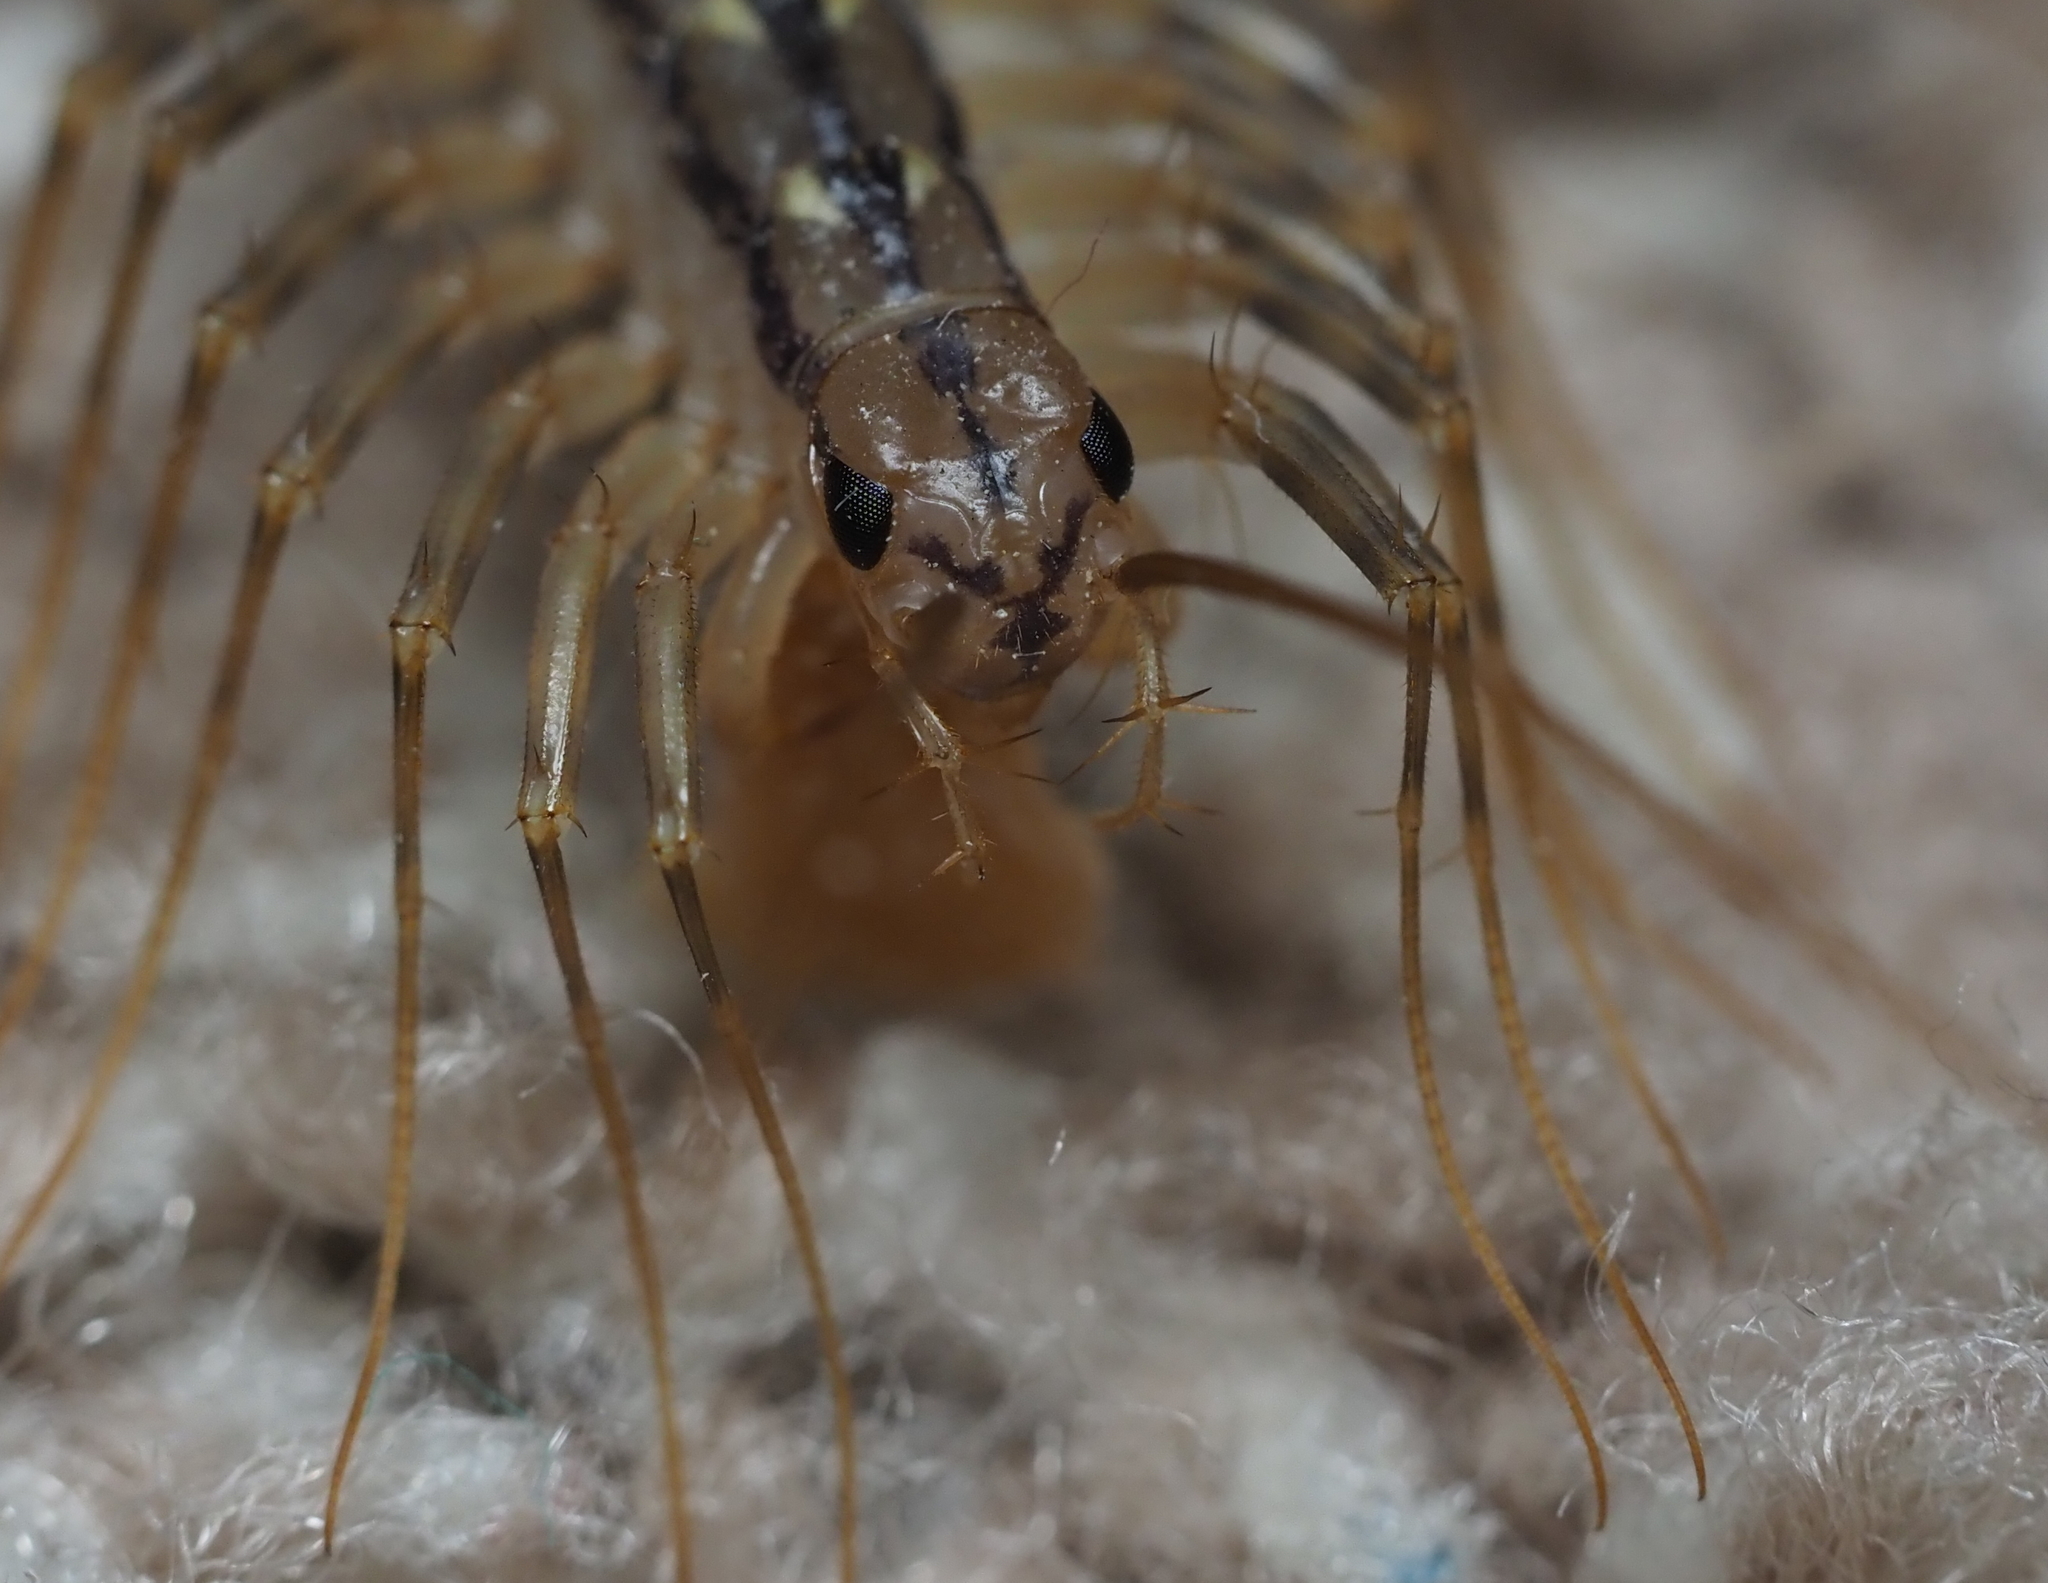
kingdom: Animalia
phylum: Arthropoda
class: Chilopoda
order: Scutigeromorpha
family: Scutigeridae
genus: Scutigera
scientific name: Scutigera coleoptrata
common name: House centipede
